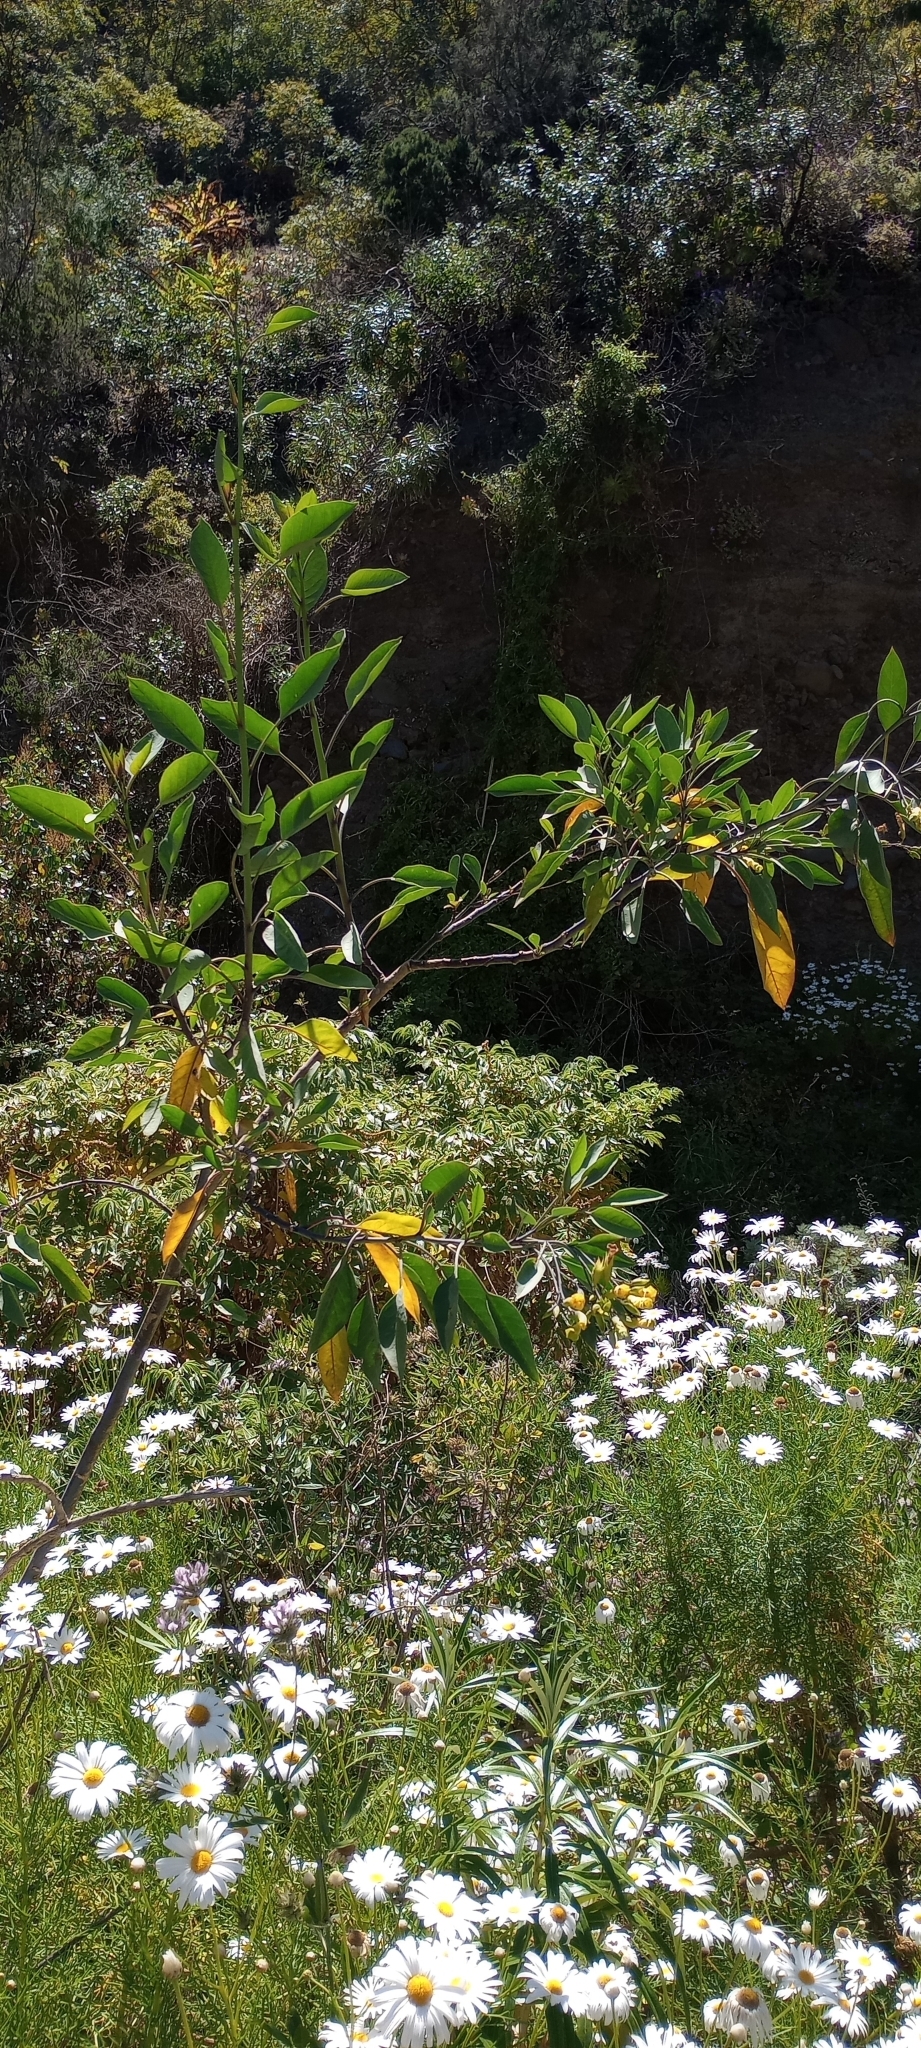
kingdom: Plantae
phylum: Tracheophyta
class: Magnoliopsida
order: Solanales
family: Solanaceae
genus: Nicotiana
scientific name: Nicotiana glauca
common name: Tree tobacco
